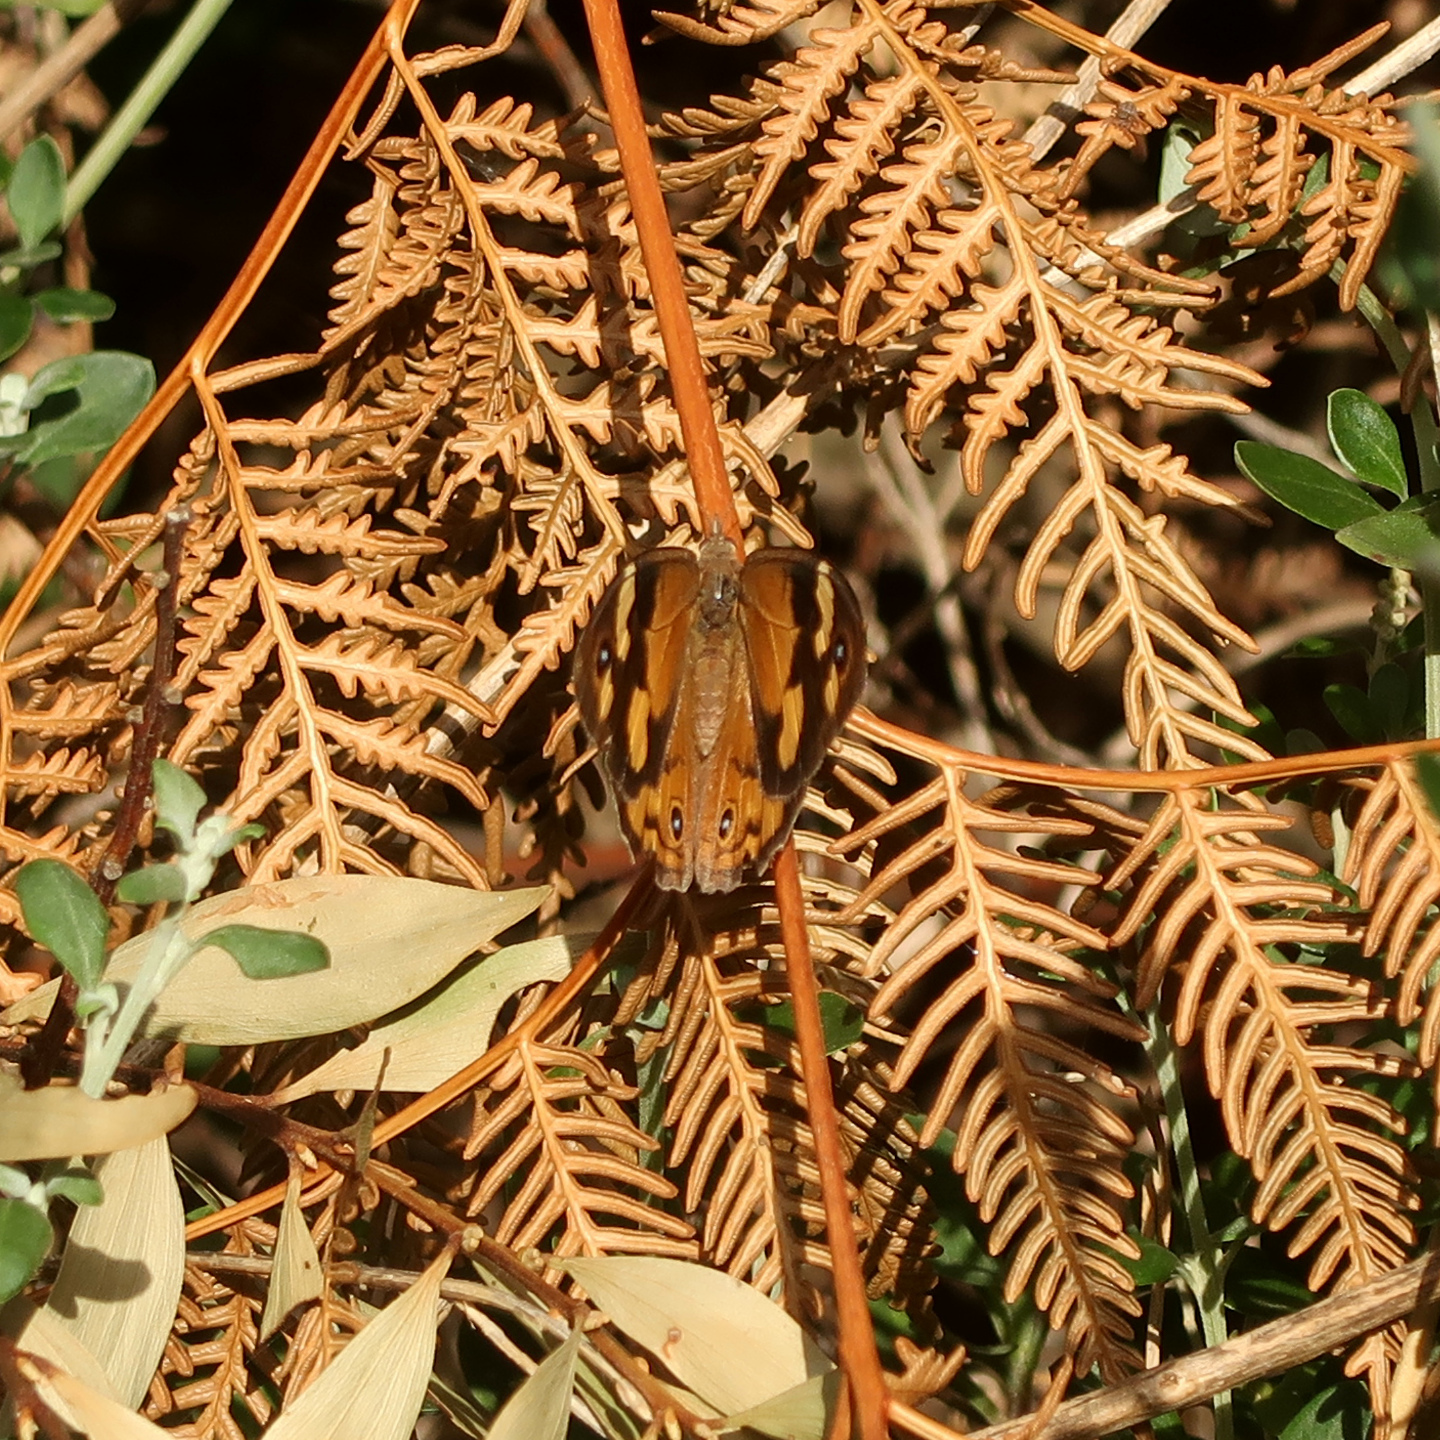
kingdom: Animalia
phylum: Arthropoda
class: Insecta
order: Lepidoptera
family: Nymphalidae
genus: Heteronympha
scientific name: Heteronympha merope
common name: Common brown
